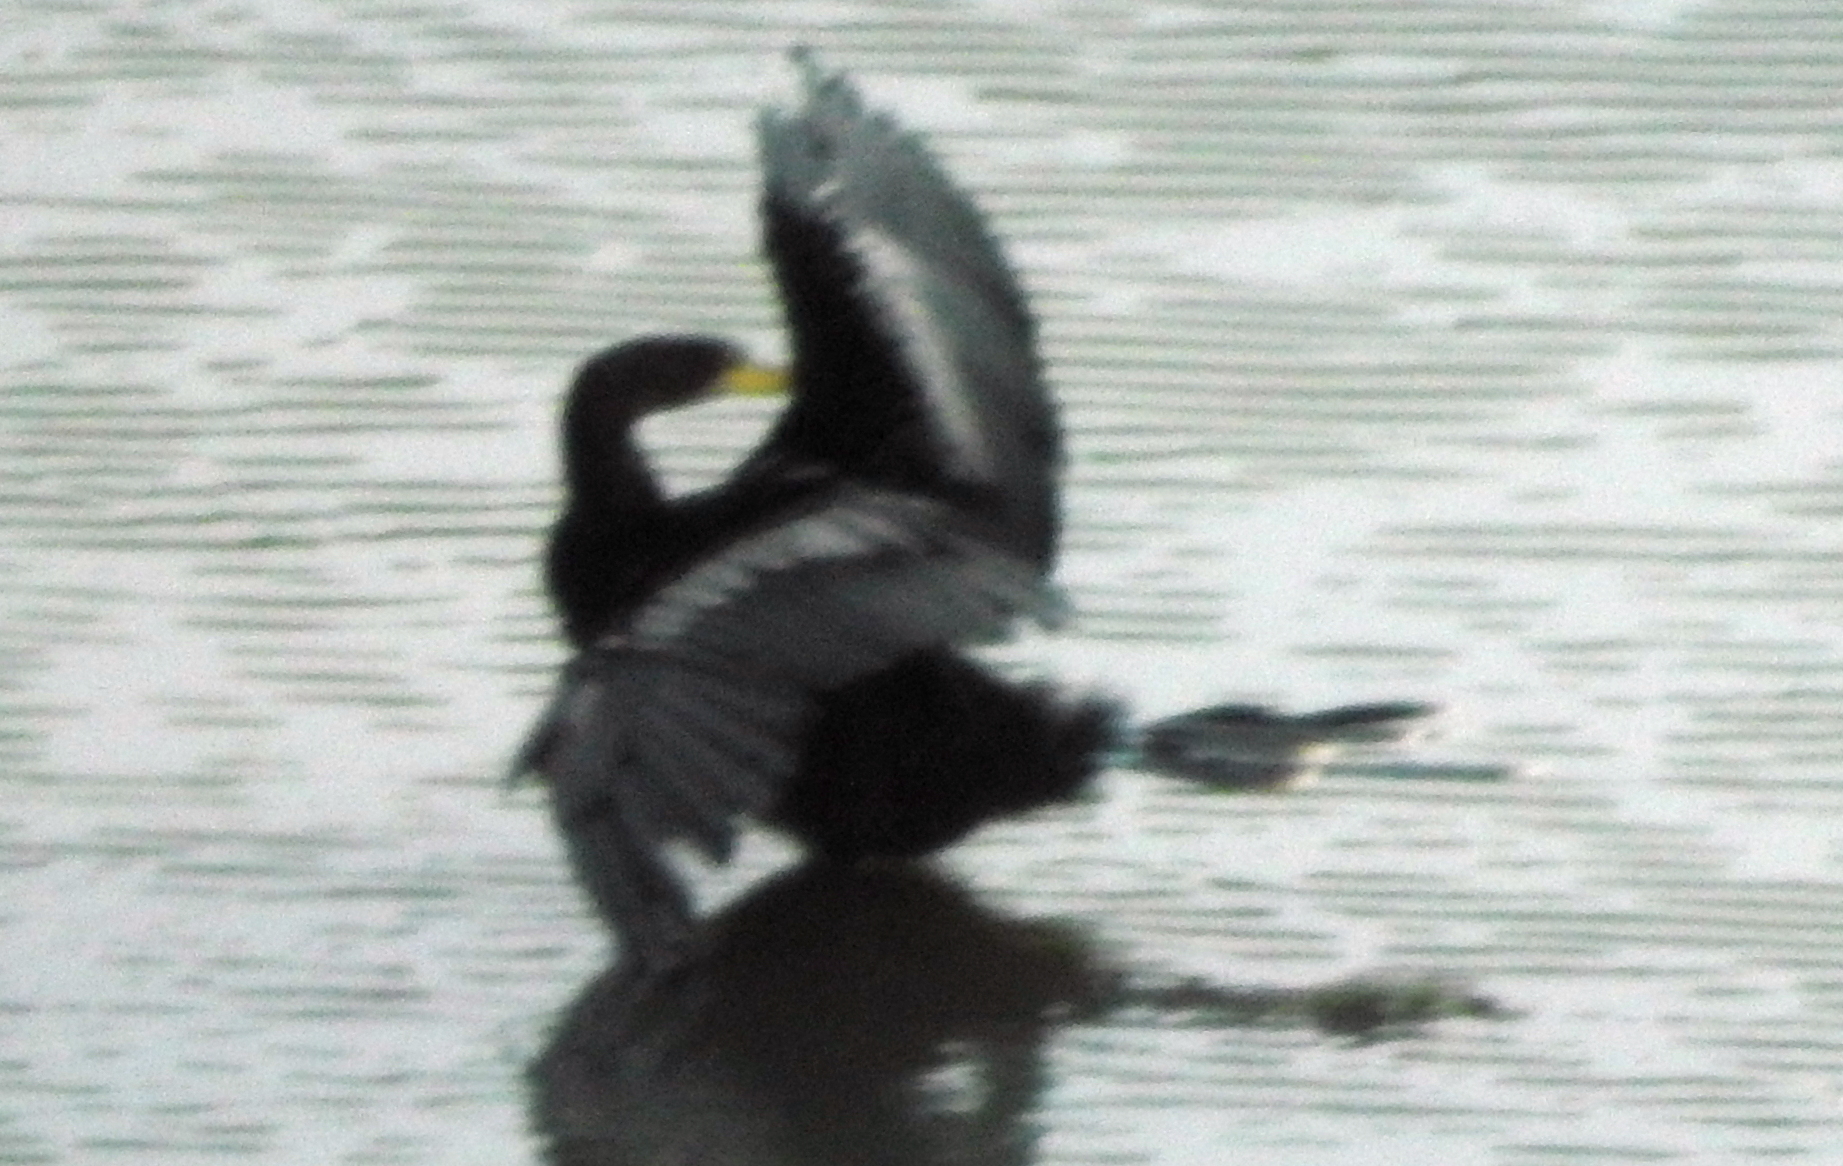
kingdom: Animalia
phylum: Chordata
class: Aves
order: Suliformes
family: Anhingidae
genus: Anhinga
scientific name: Anhinga anhinga
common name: Anhinga
